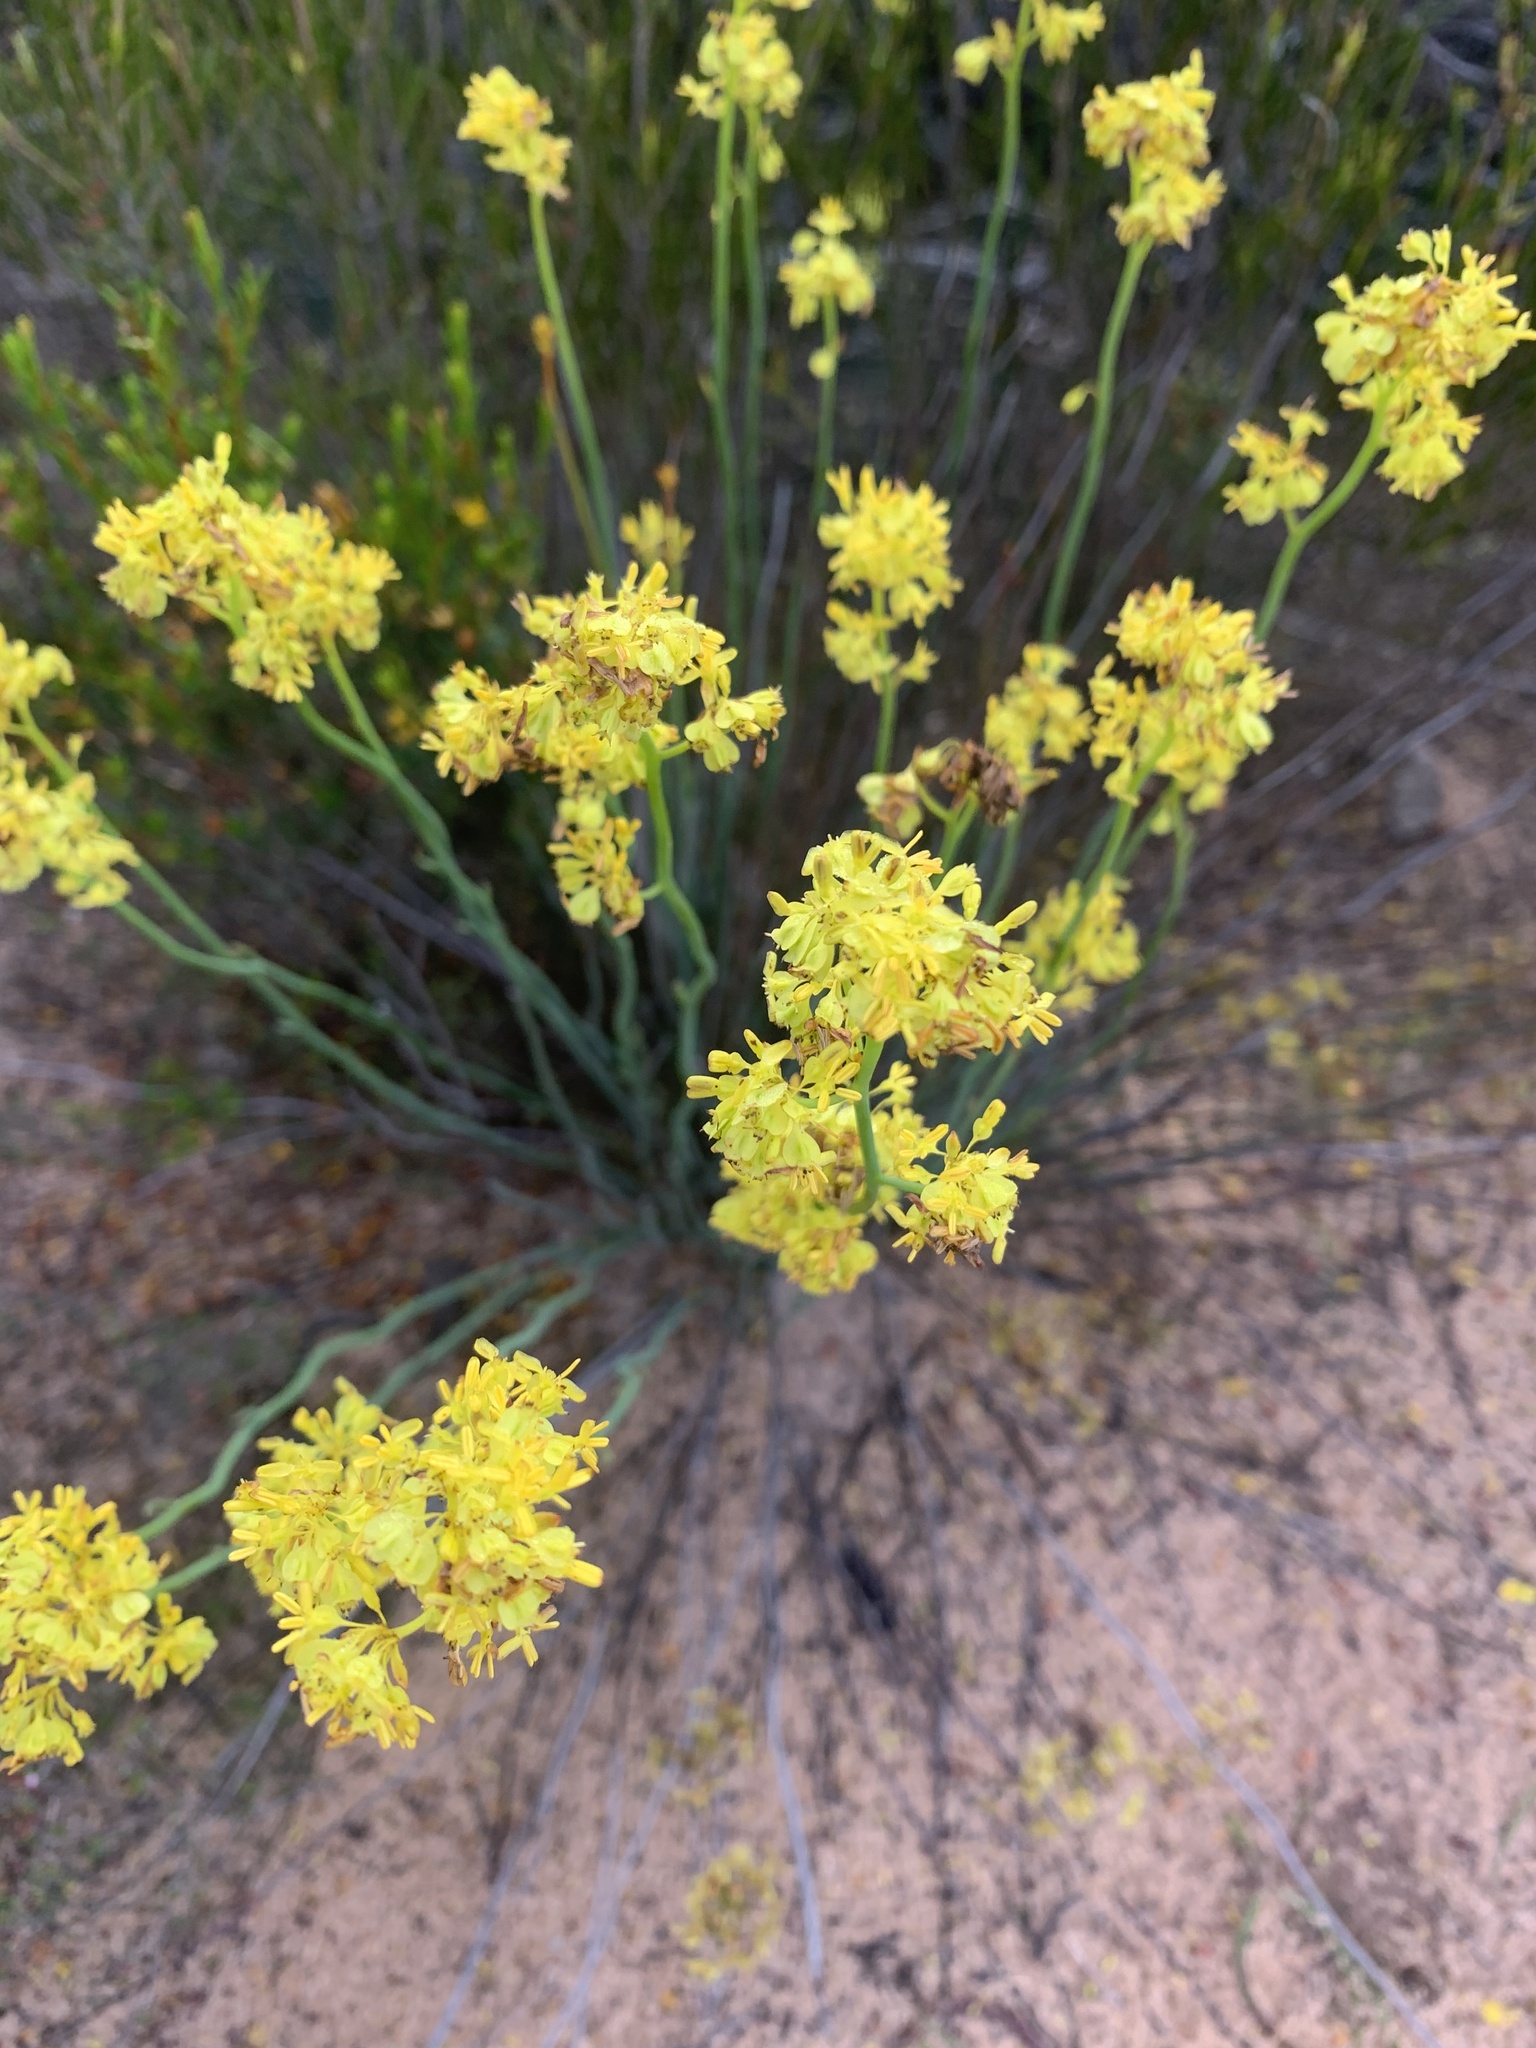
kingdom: Plantae
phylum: Tracheophyta
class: Magnoliopsida
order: Saxifragales
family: Haloragaceae
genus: Glischrocaryon
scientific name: Glischrocaryon behrii
